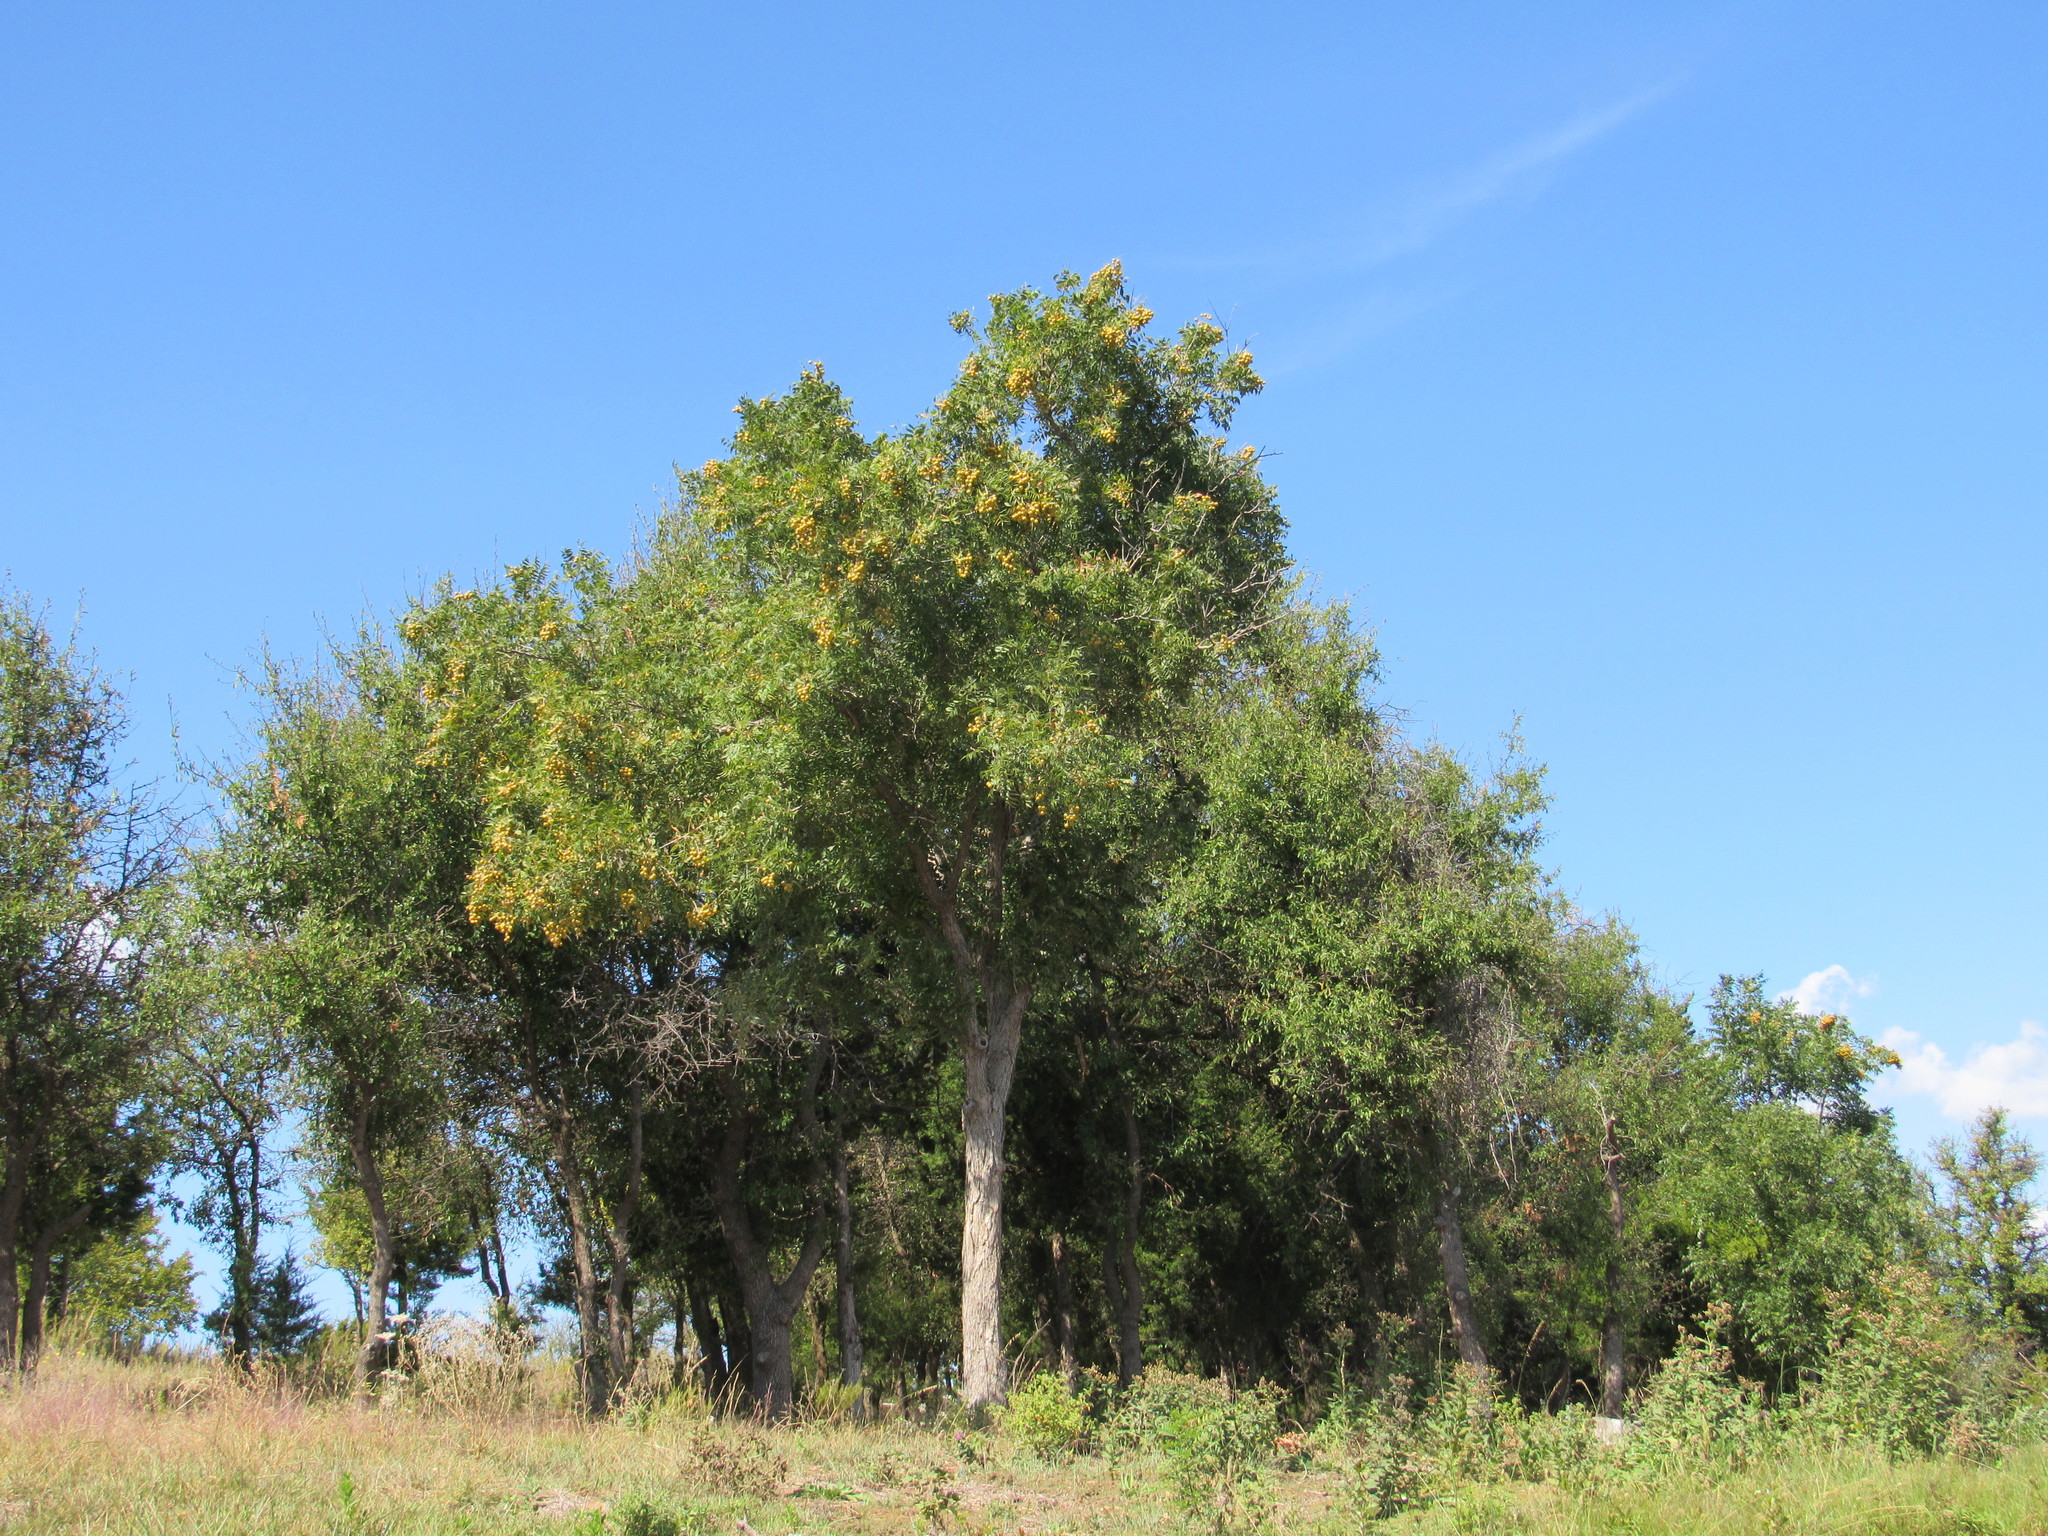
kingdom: Plantae
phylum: Tracheophyta
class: Magnoliopsida
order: Sapindales
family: Sapindaceae
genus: Sapindus
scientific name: Sapindus drummondii
